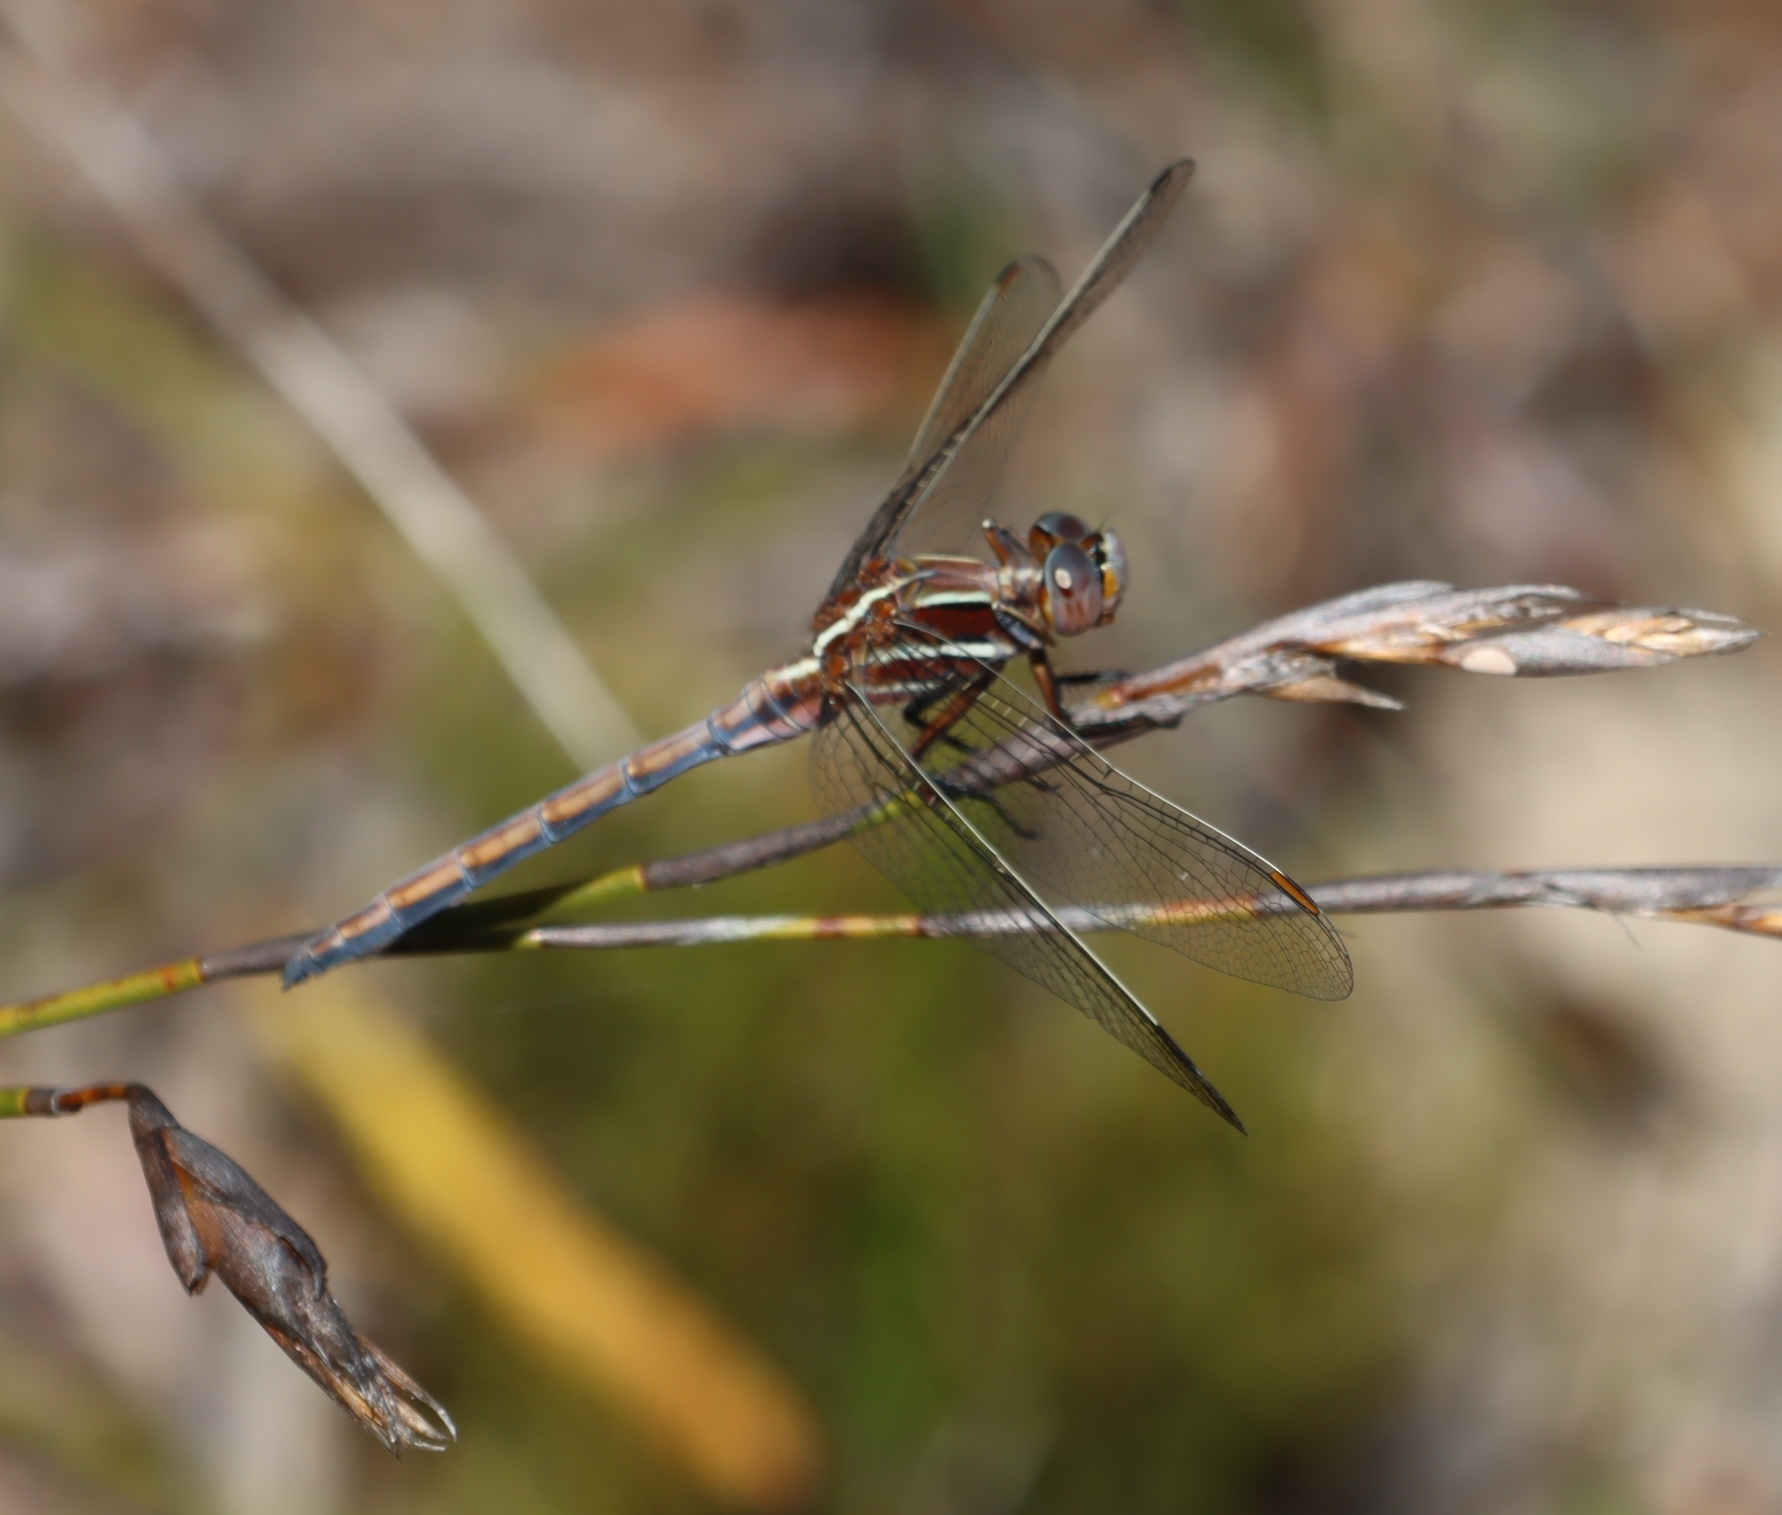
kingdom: Animalia
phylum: Arthropoda
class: Insecta
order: Odonata
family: Libellulidae
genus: Orthetrum
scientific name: Orthetrum caffrum
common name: Two-striped skimmer
